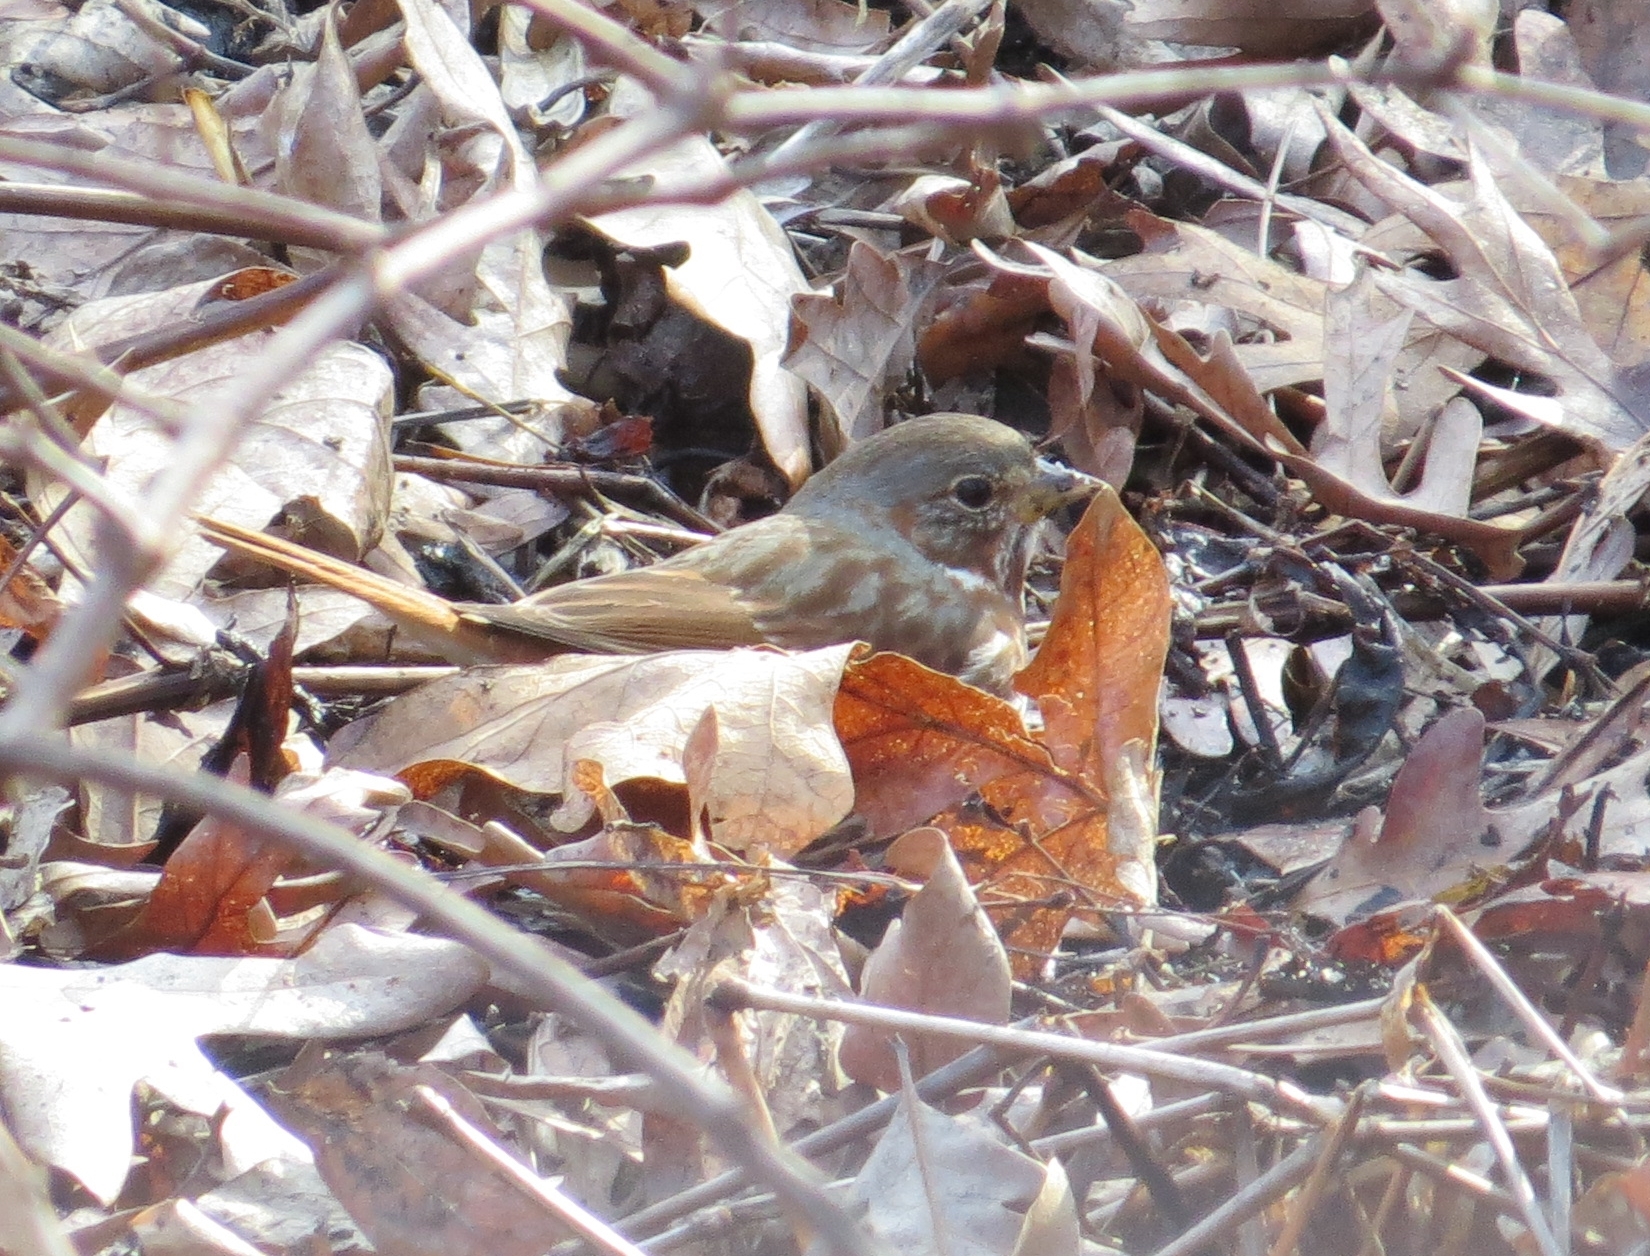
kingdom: Animalia
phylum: Chordata
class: Aves
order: Passeriformes
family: Passerellidae
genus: Passerella
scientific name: Passerella iliaca
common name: Fox sparrow
